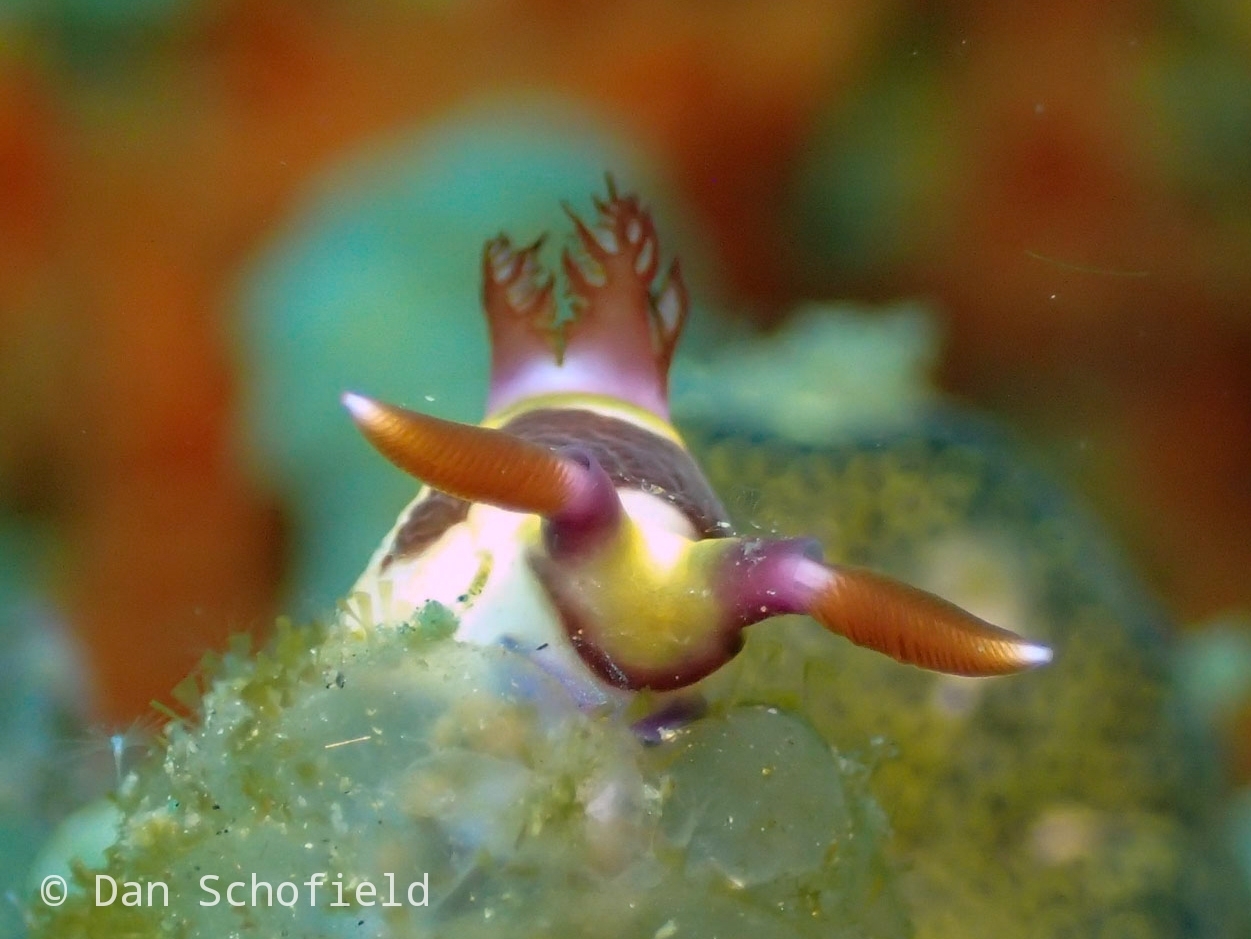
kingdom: Animalia
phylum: Mollusca
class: Gastropoda
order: Nudibranchia
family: Polyceridae
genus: Nembrotha
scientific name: Nembrotha chamberlaini
